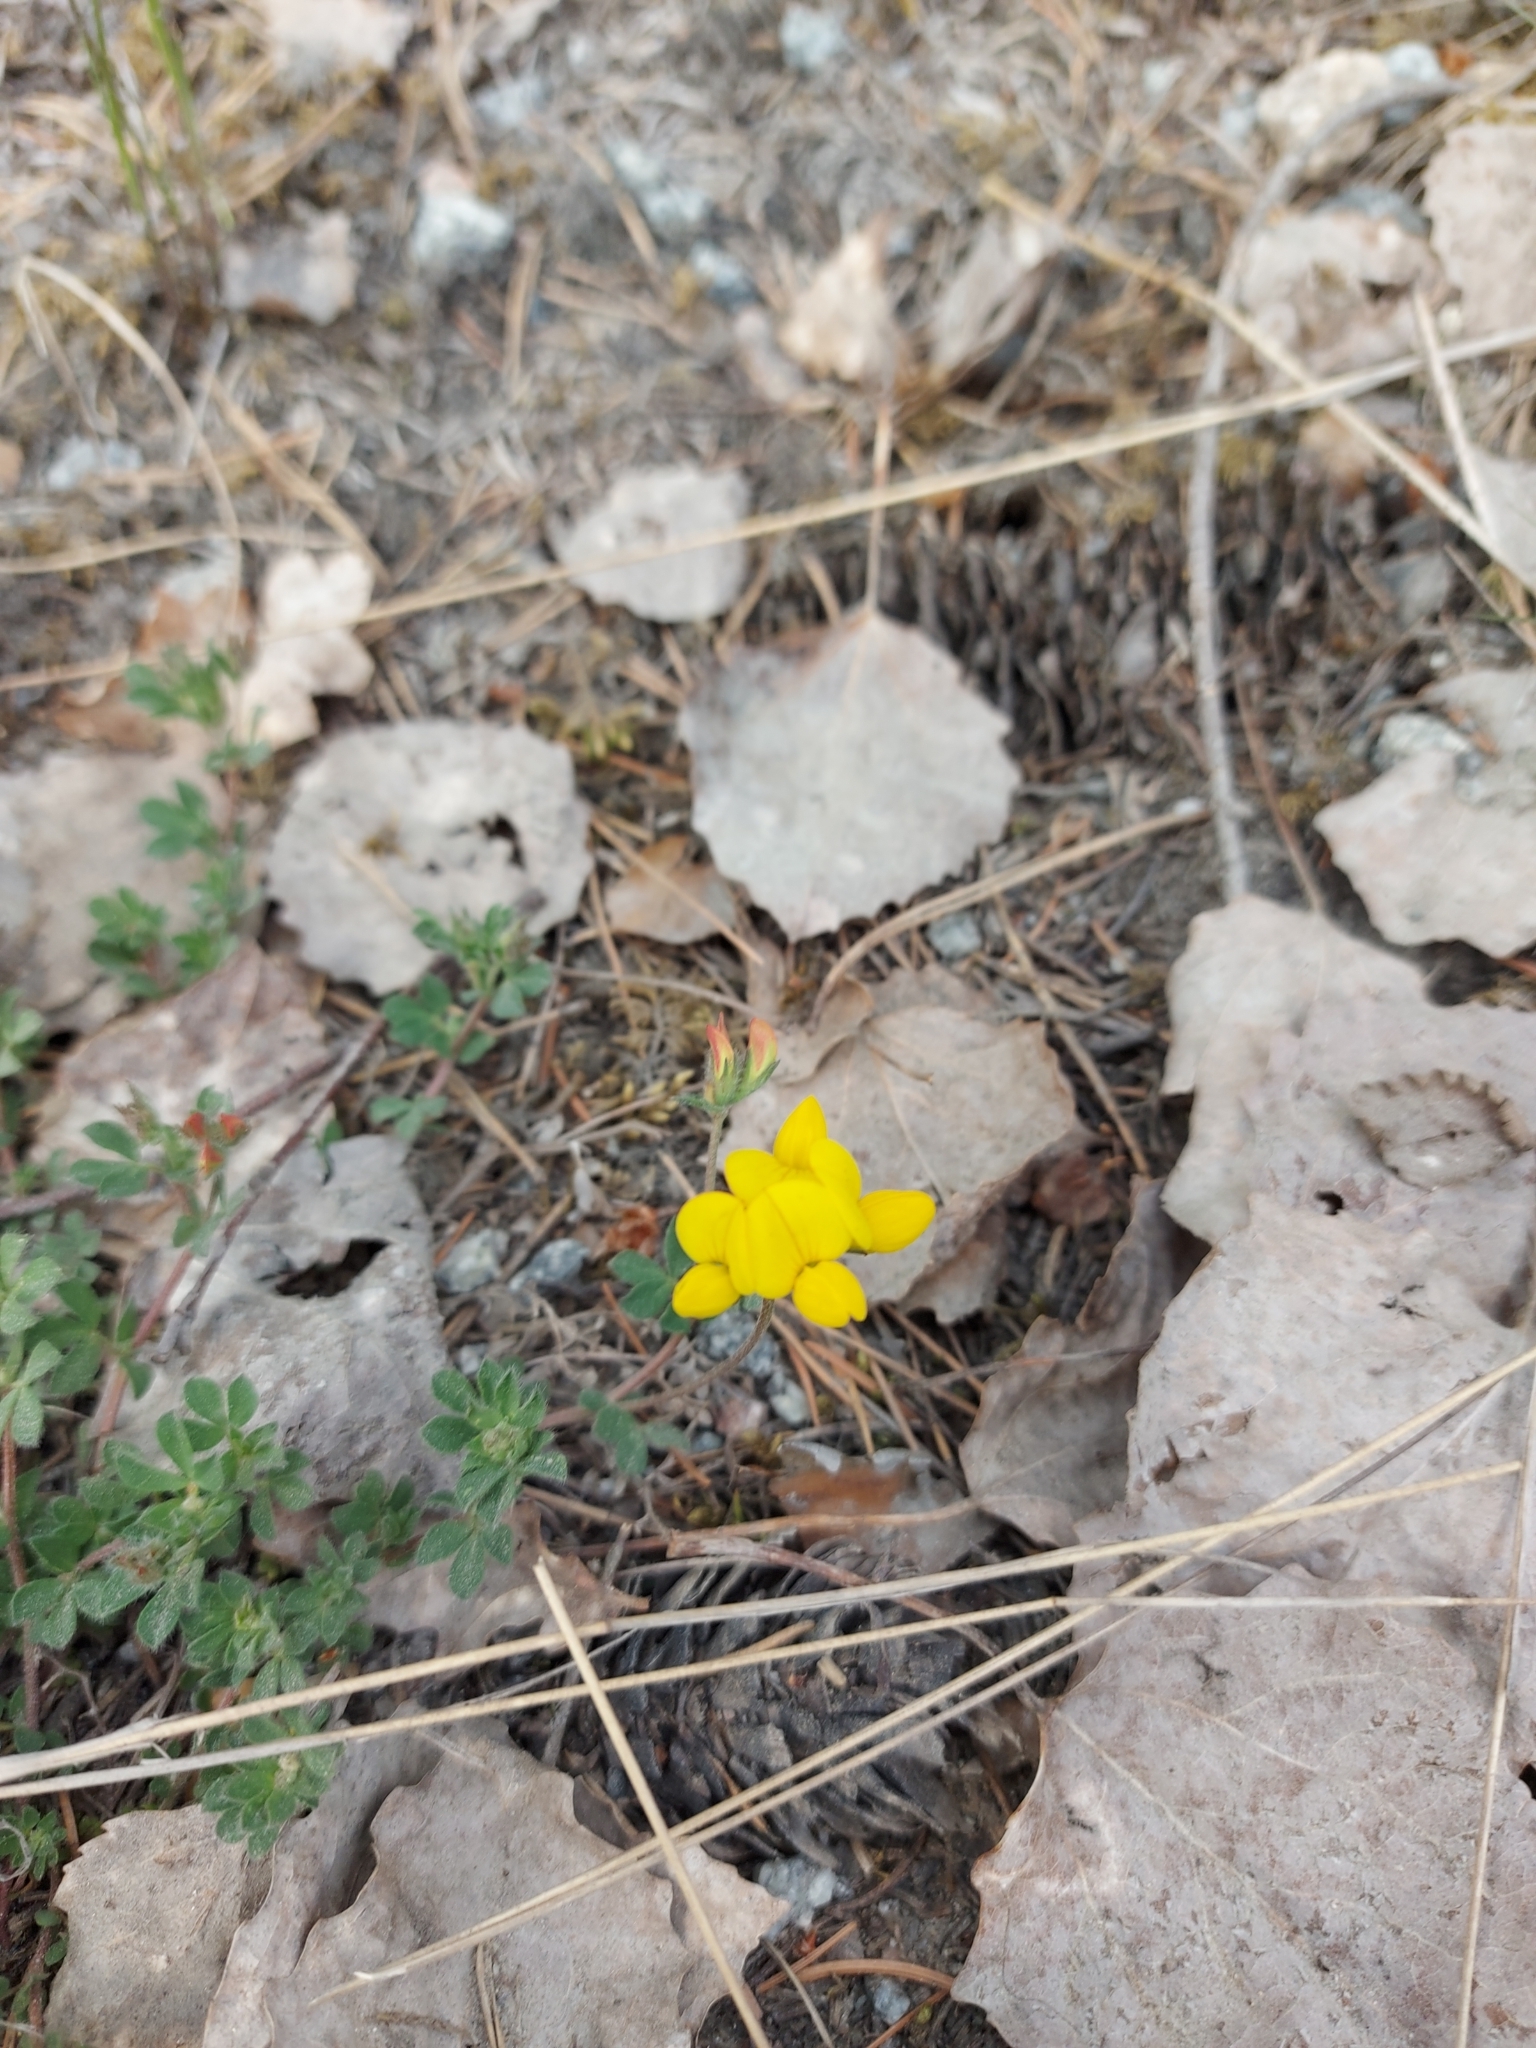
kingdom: Plantae
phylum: Tracheophyta
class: Magnoliopsida
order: Fabales
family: Fabaceae
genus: Lotus
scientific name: Lotus corniculatus
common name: Common bird's-foot-trefoil
